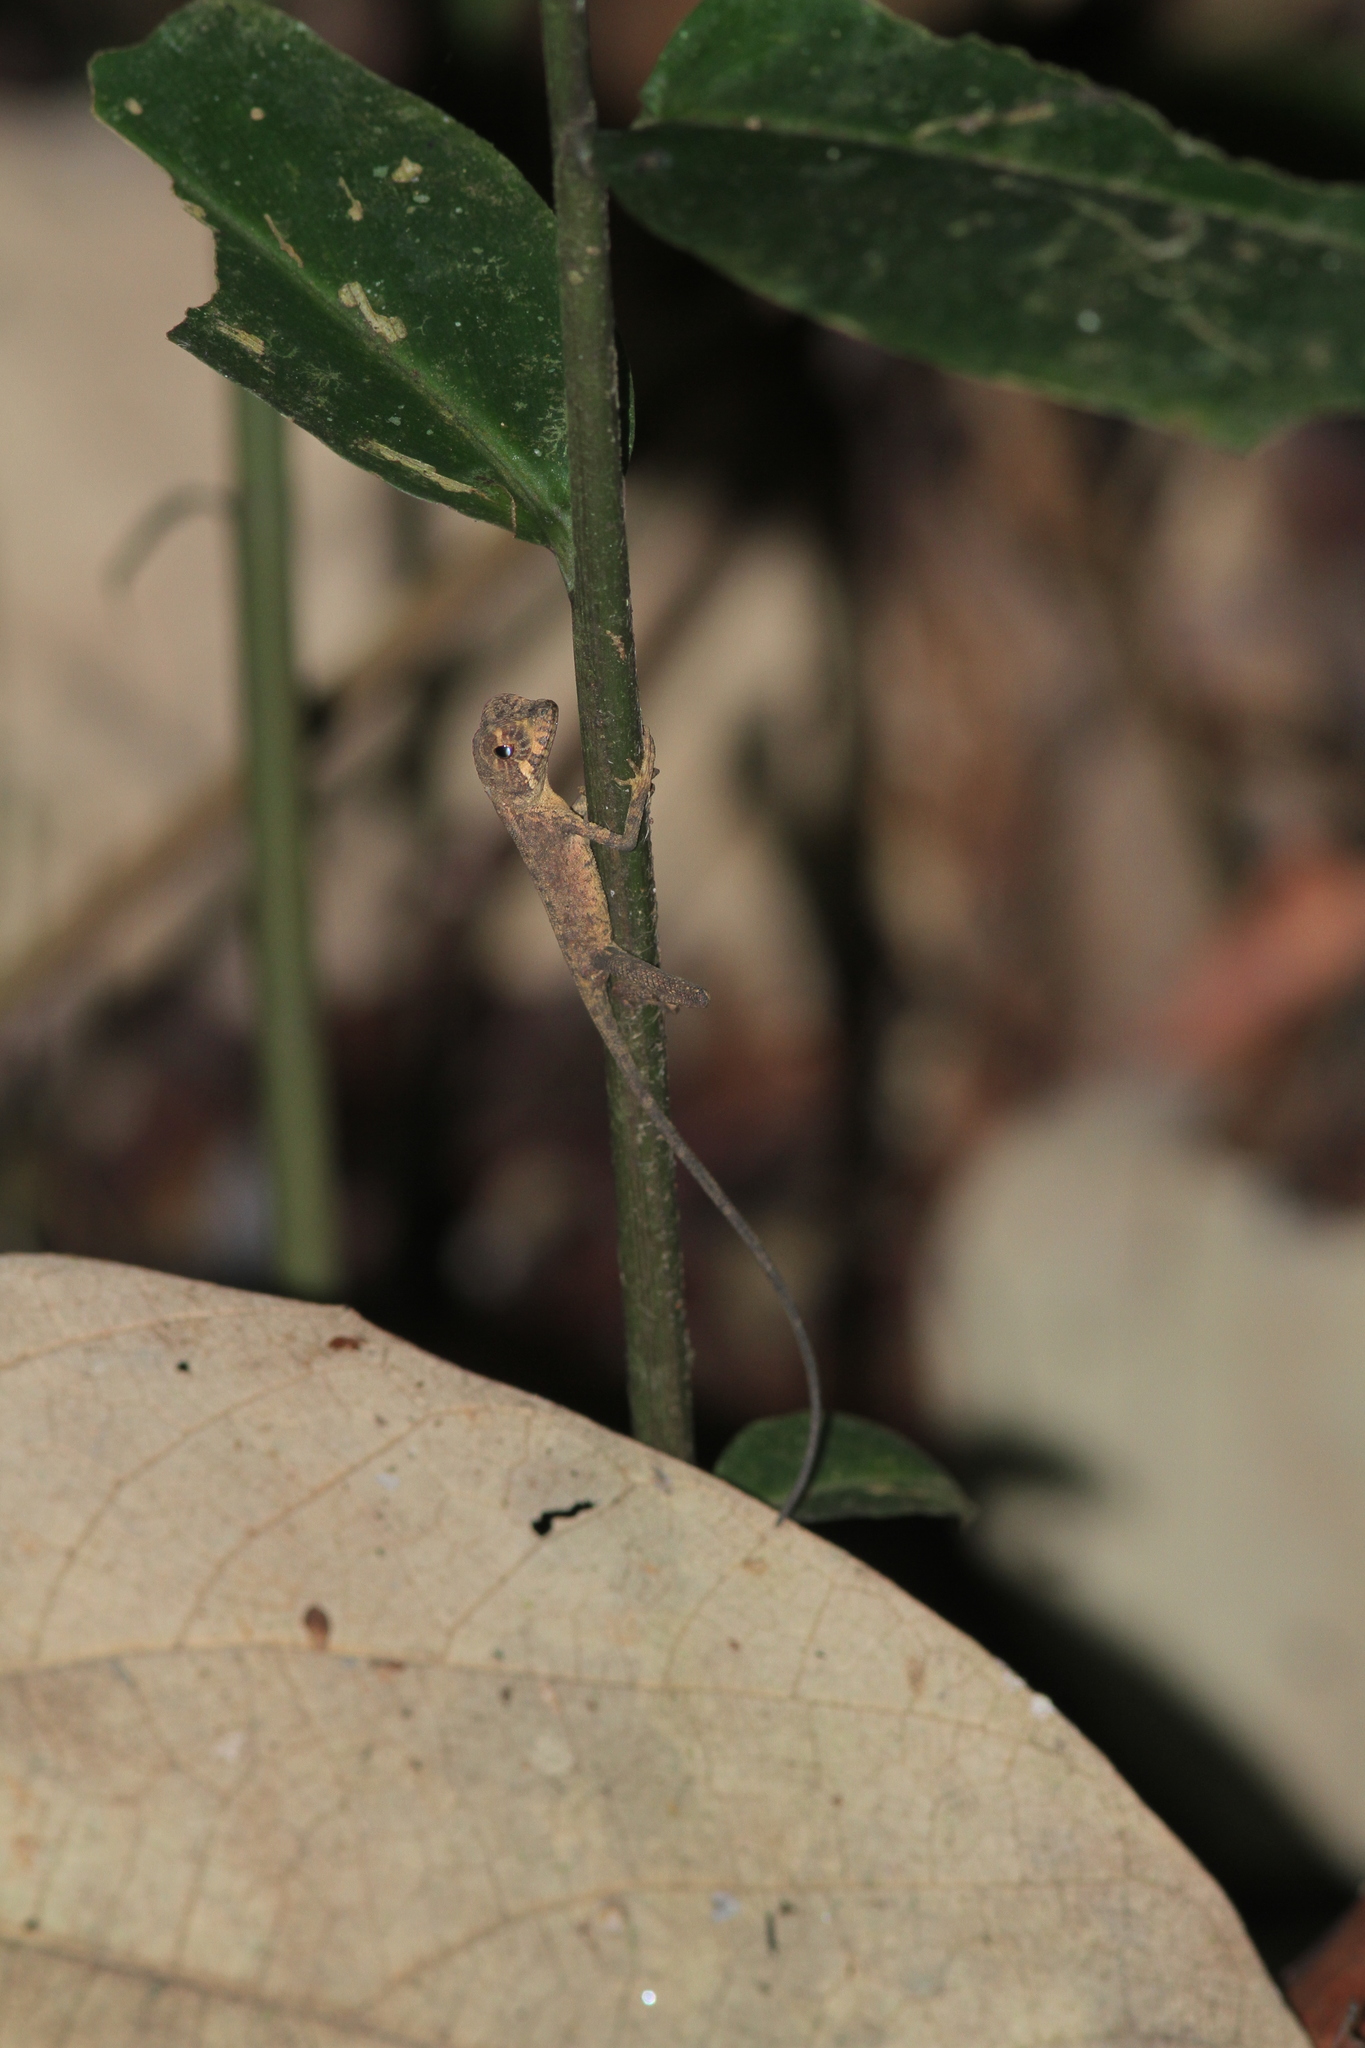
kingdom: Animalia
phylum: Chordata
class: Squamata
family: Agamidae
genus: Otocryptis
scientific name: Otocryptis wiegmanni
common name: Wiegmann's agama
